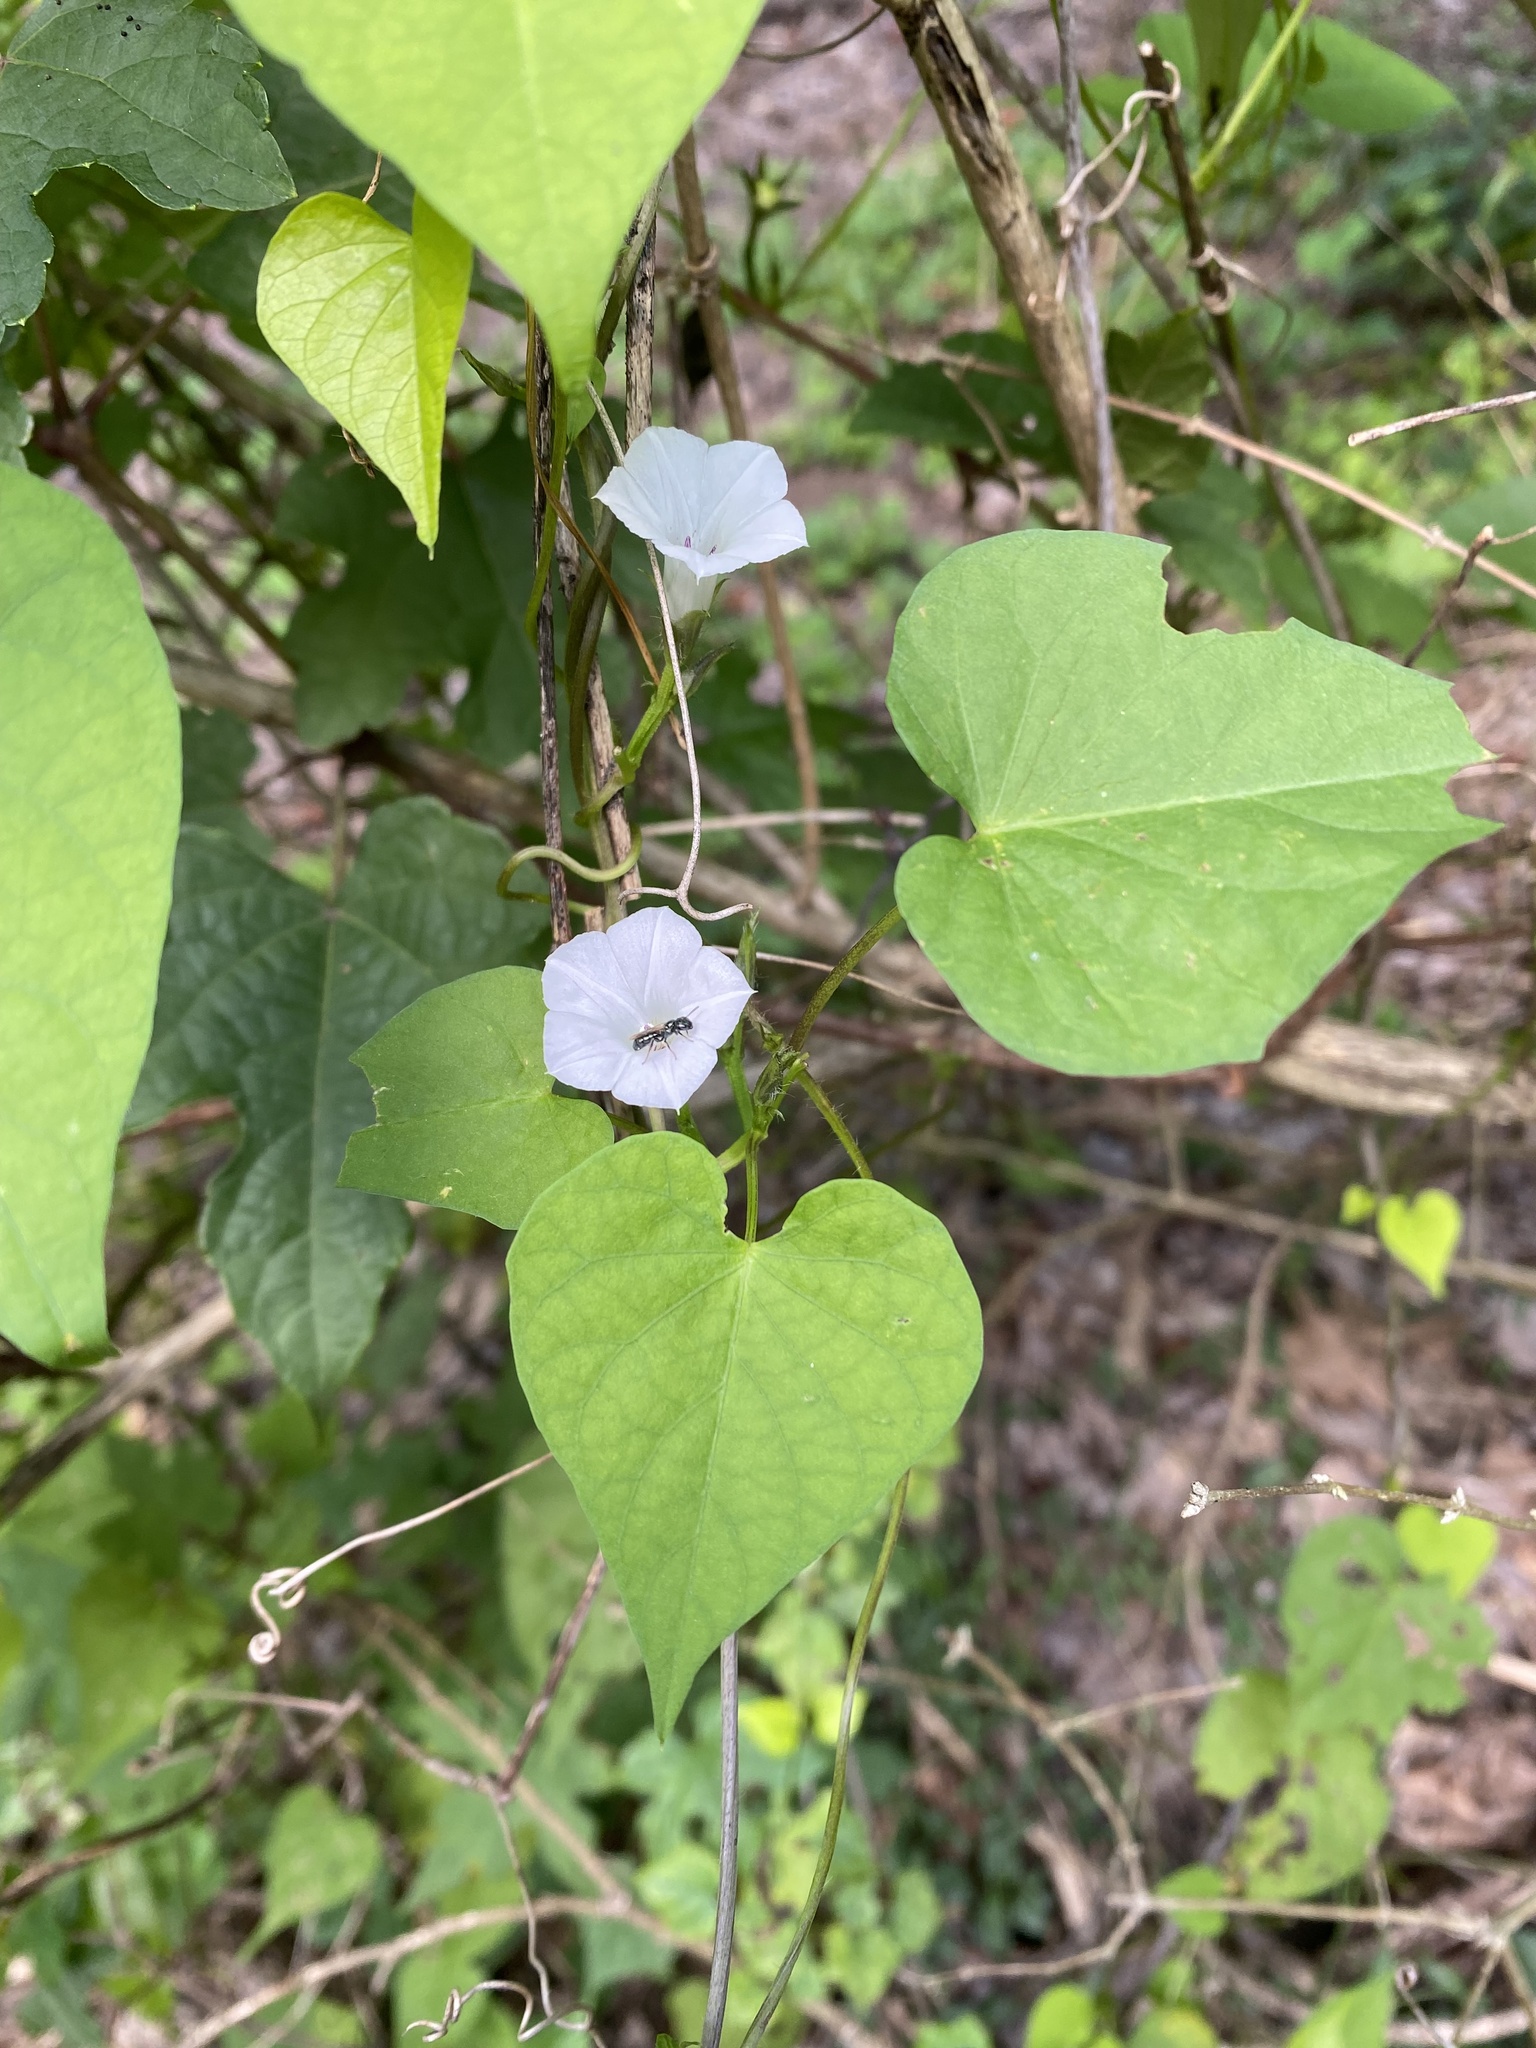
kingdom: Plantae
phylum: Tracheophyta
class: Magnoliopsida
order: Solanales
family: Convolvulaceae
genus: Ipomoea
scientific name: Ipomoea lacunosa
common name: White morning-glory
